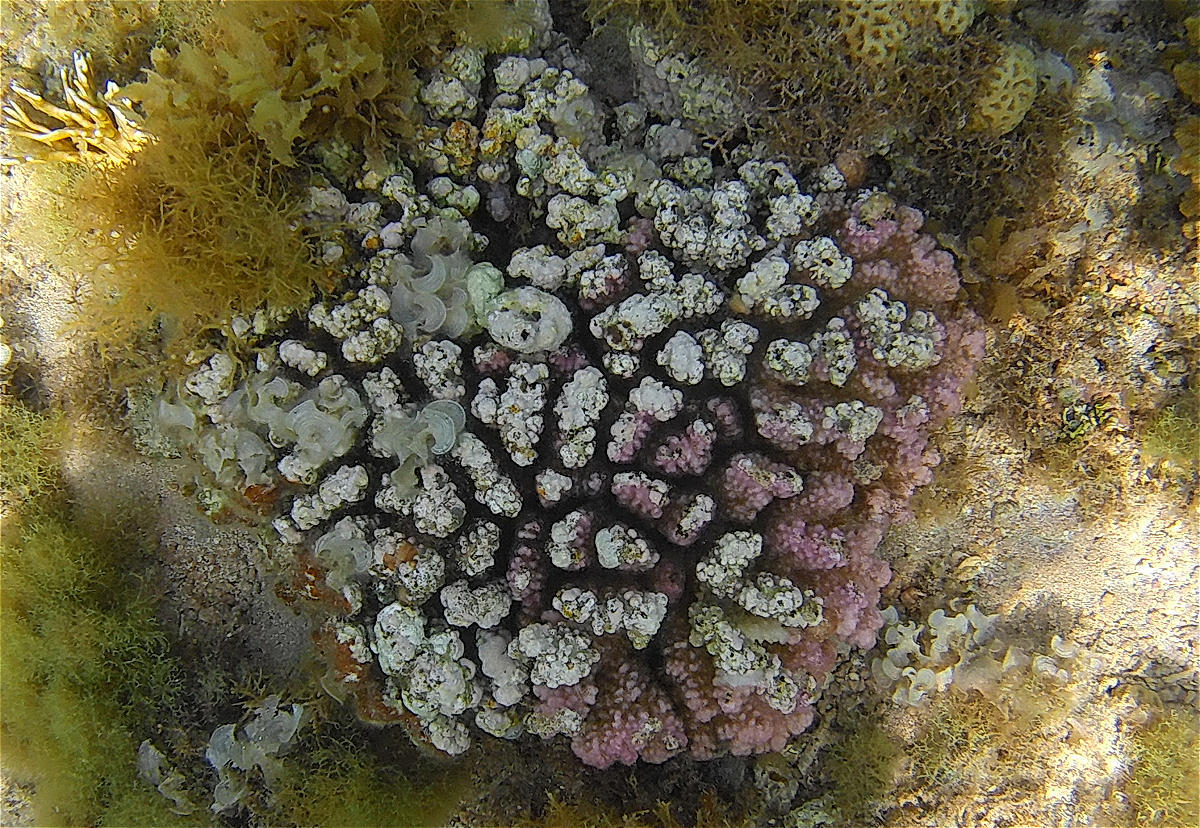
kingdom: Animalia
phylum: Cnidaria
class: Anthozoa
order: Scleractinia
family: Pocilloporidae
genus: Pocillopora
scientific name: Pocillopora verrucosa
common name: Cauliflower coral
